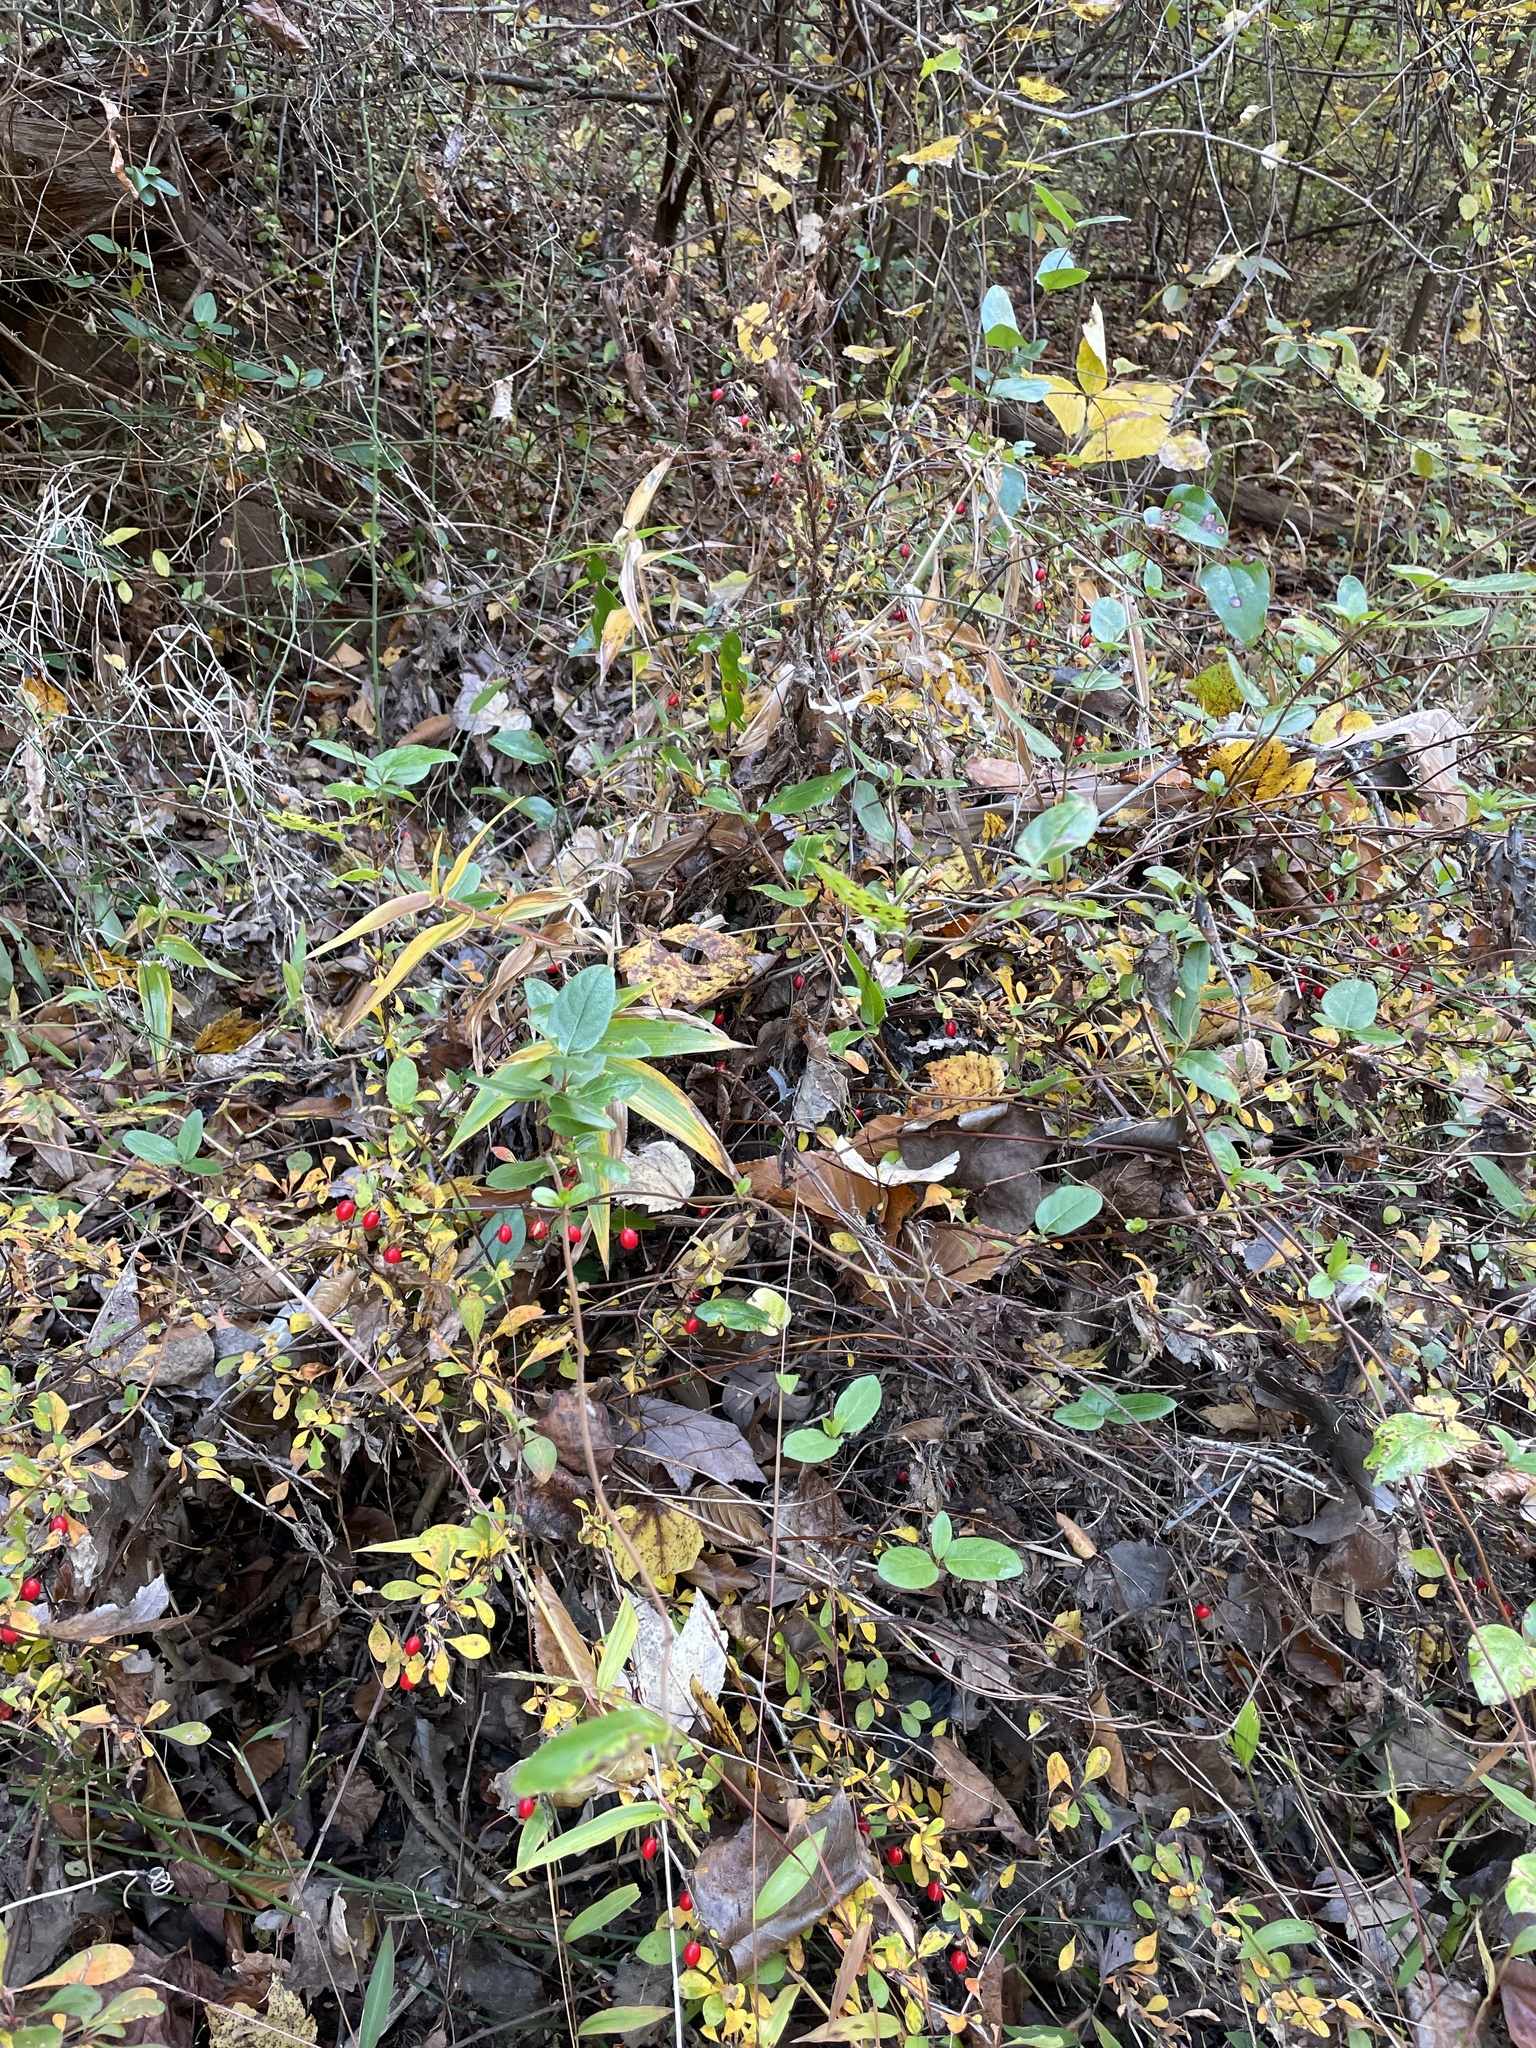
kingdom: Plantae
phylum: Tracheophyta
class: Magnoliopsida
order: Ranunculales
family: Berberidaceae
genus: Berberis
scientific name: Berberis thunbergii
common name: Japanese barberry
